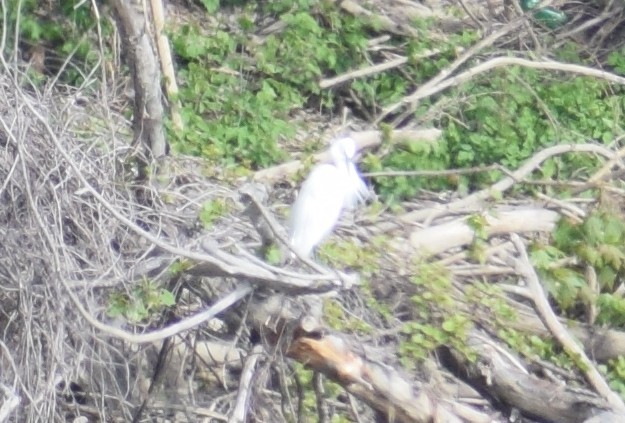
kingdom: Animalia
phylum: Chordata
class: Aves
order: Pelecaniformes
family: Ardeidae
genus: Egretta
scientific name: Egretta garzetta
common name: Little egret
